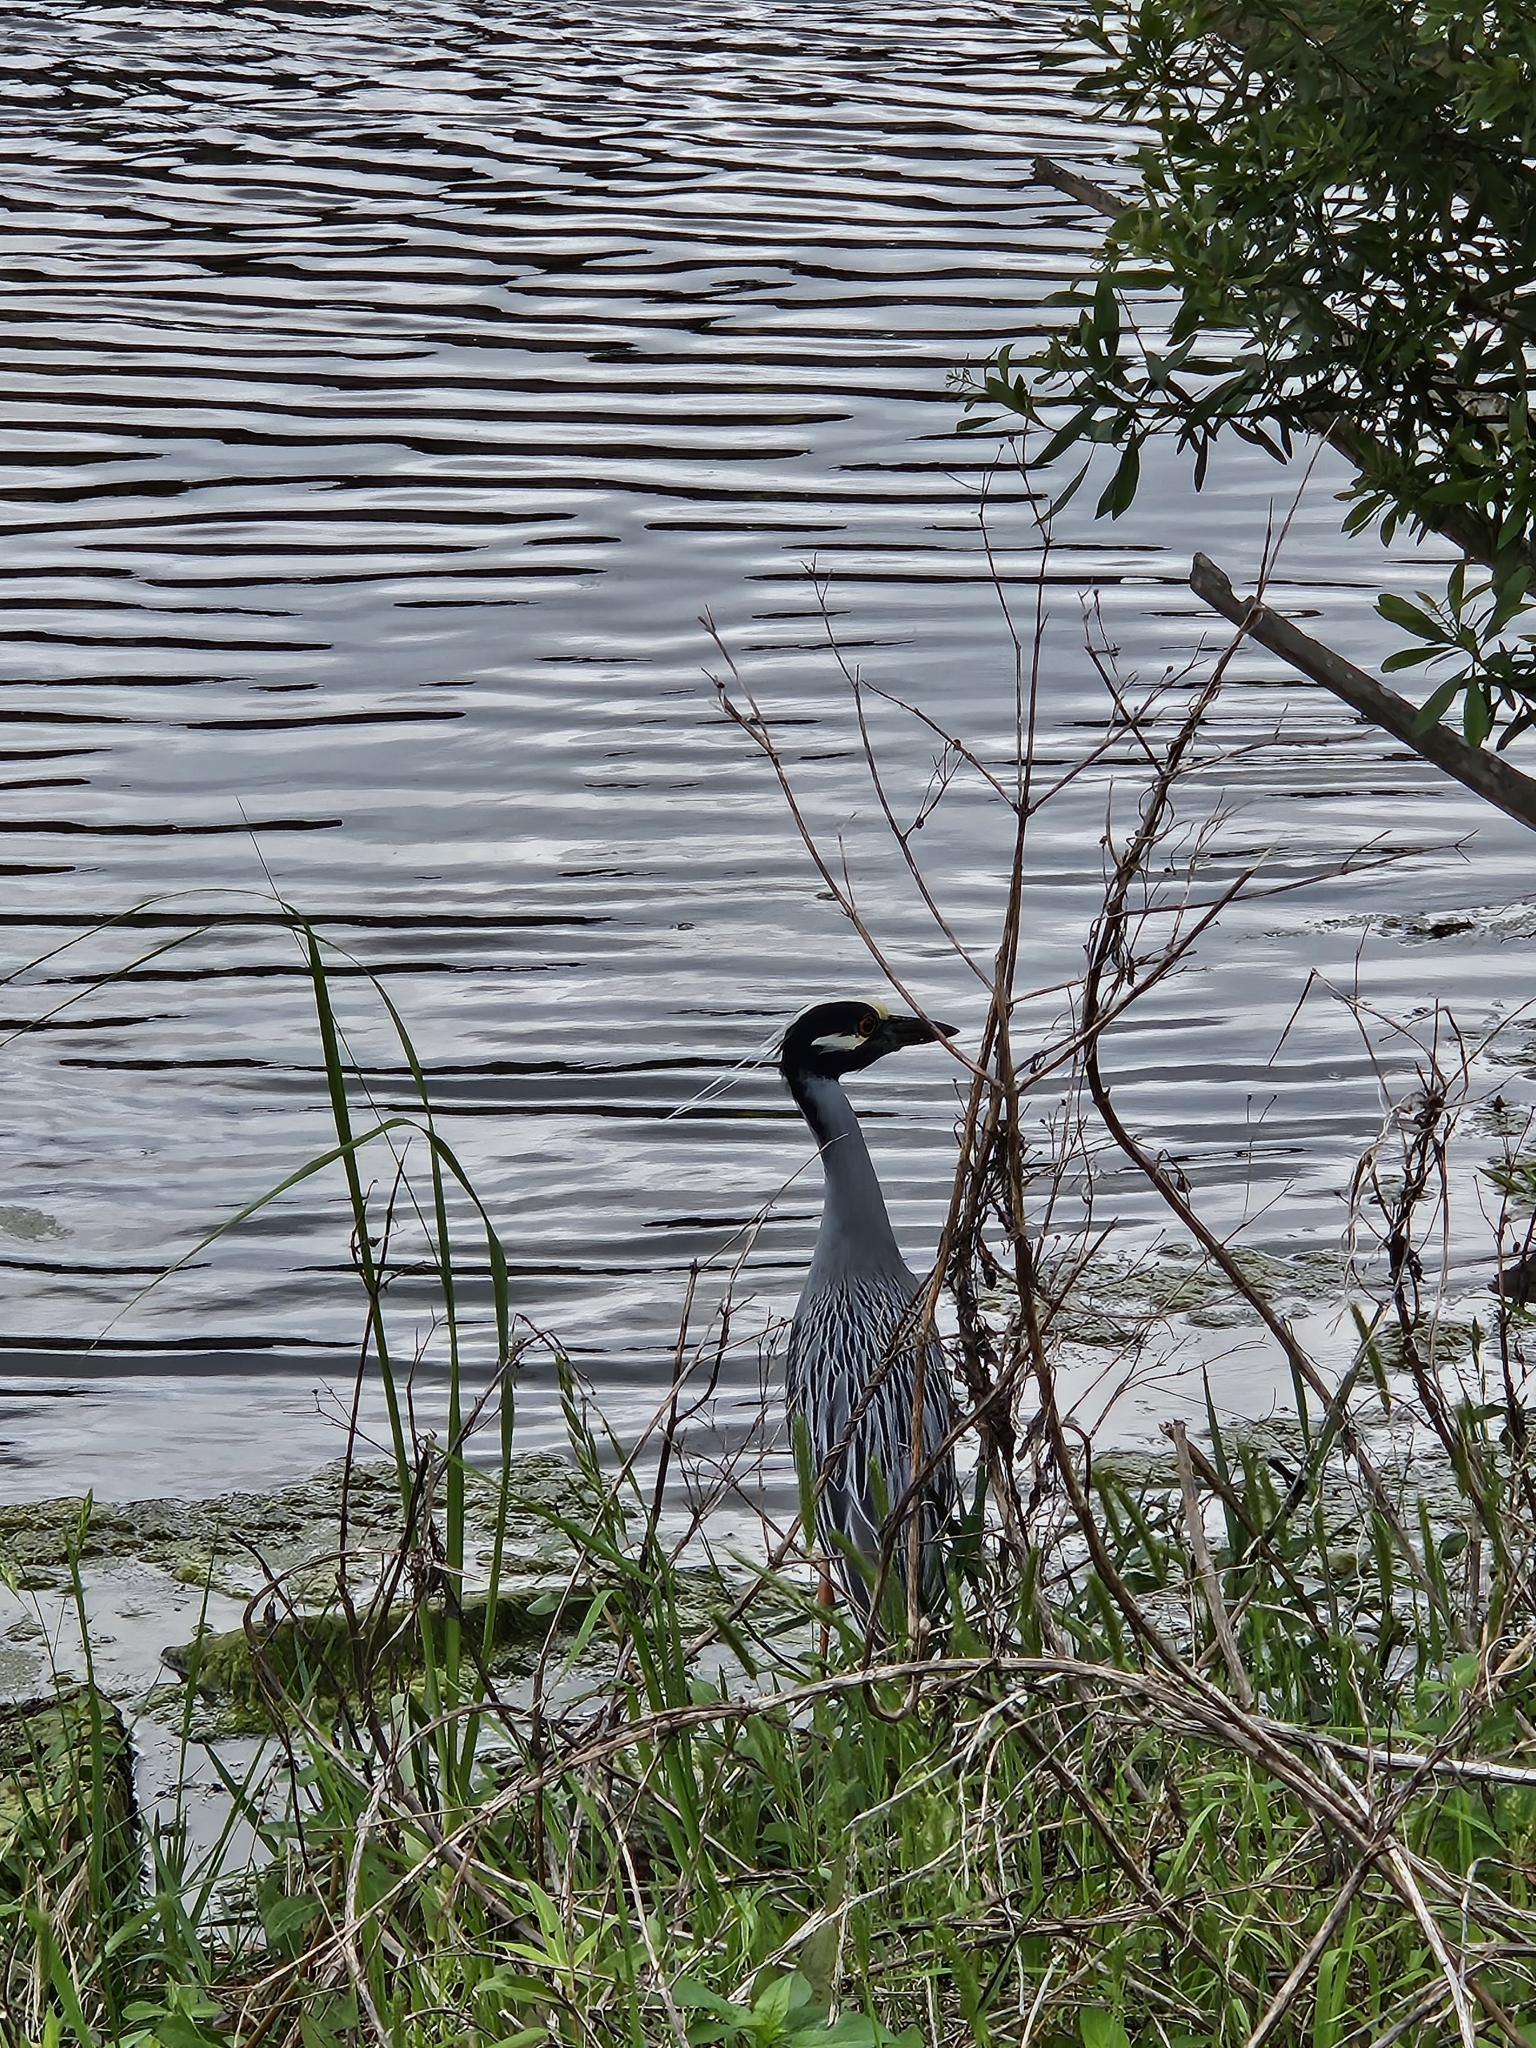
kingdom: Animalia
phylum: Chordata
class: Aves
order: Pelecaniformes
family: Ardeidae
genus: Nyctanassa
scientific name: Nyctanassa violacea
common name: Yellow-crowned night heron
